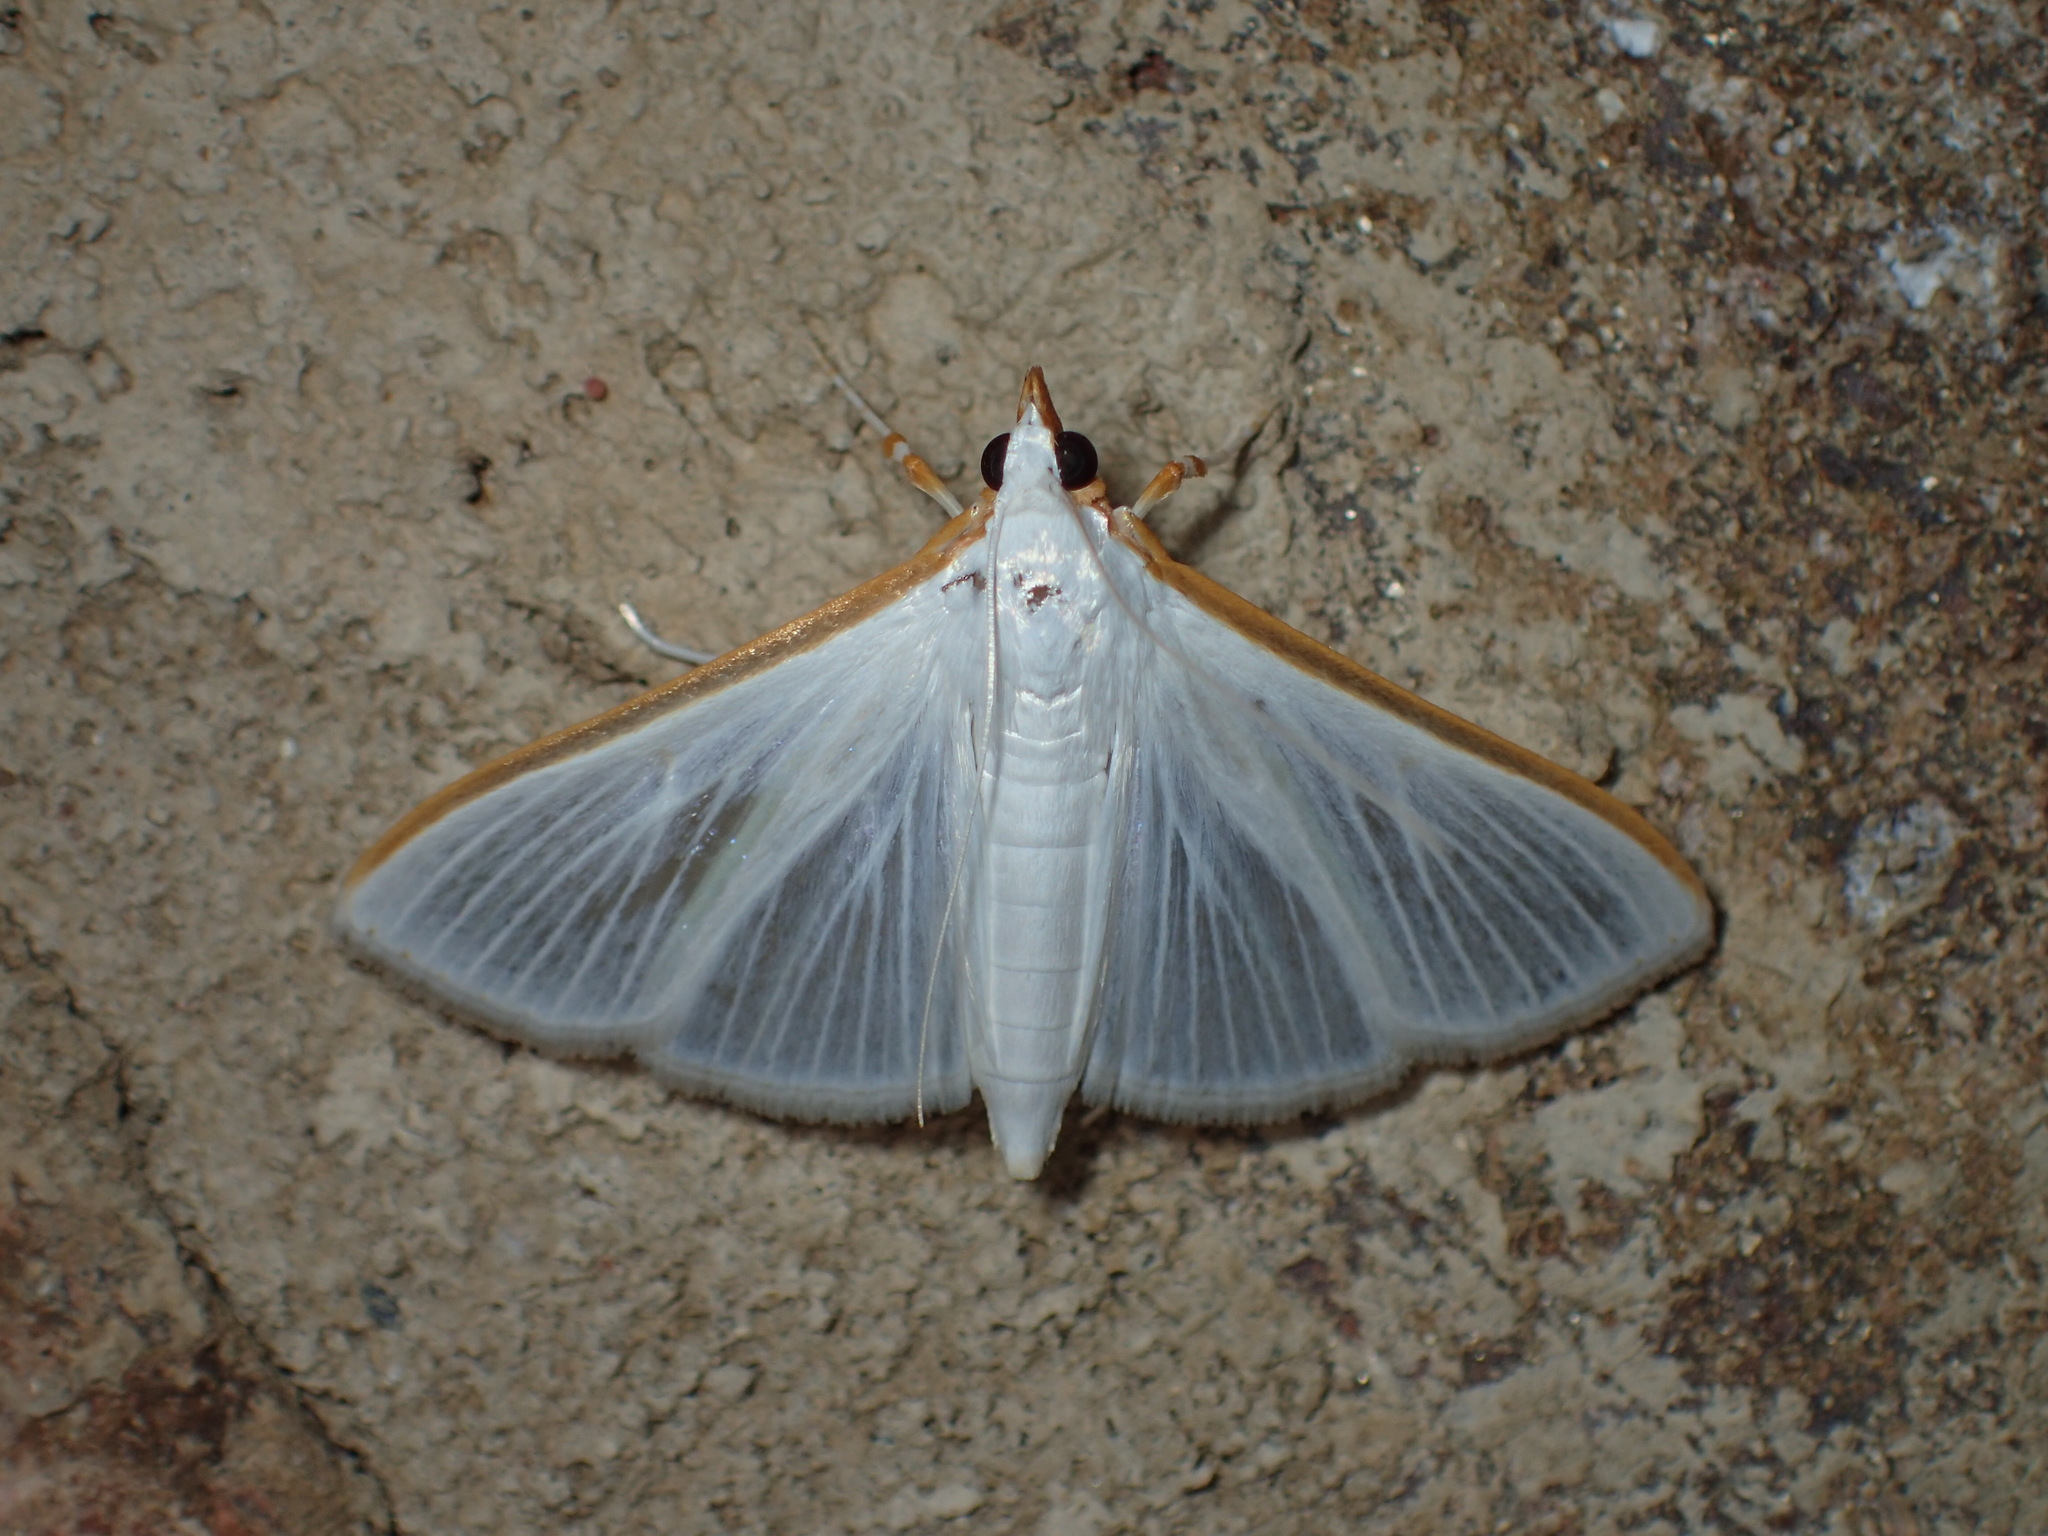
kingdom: Animalia
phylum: Arthropoda
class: Insecta
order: Lepidoptera
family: Crambidae
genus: Palpita
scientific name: Palpita kimballi
